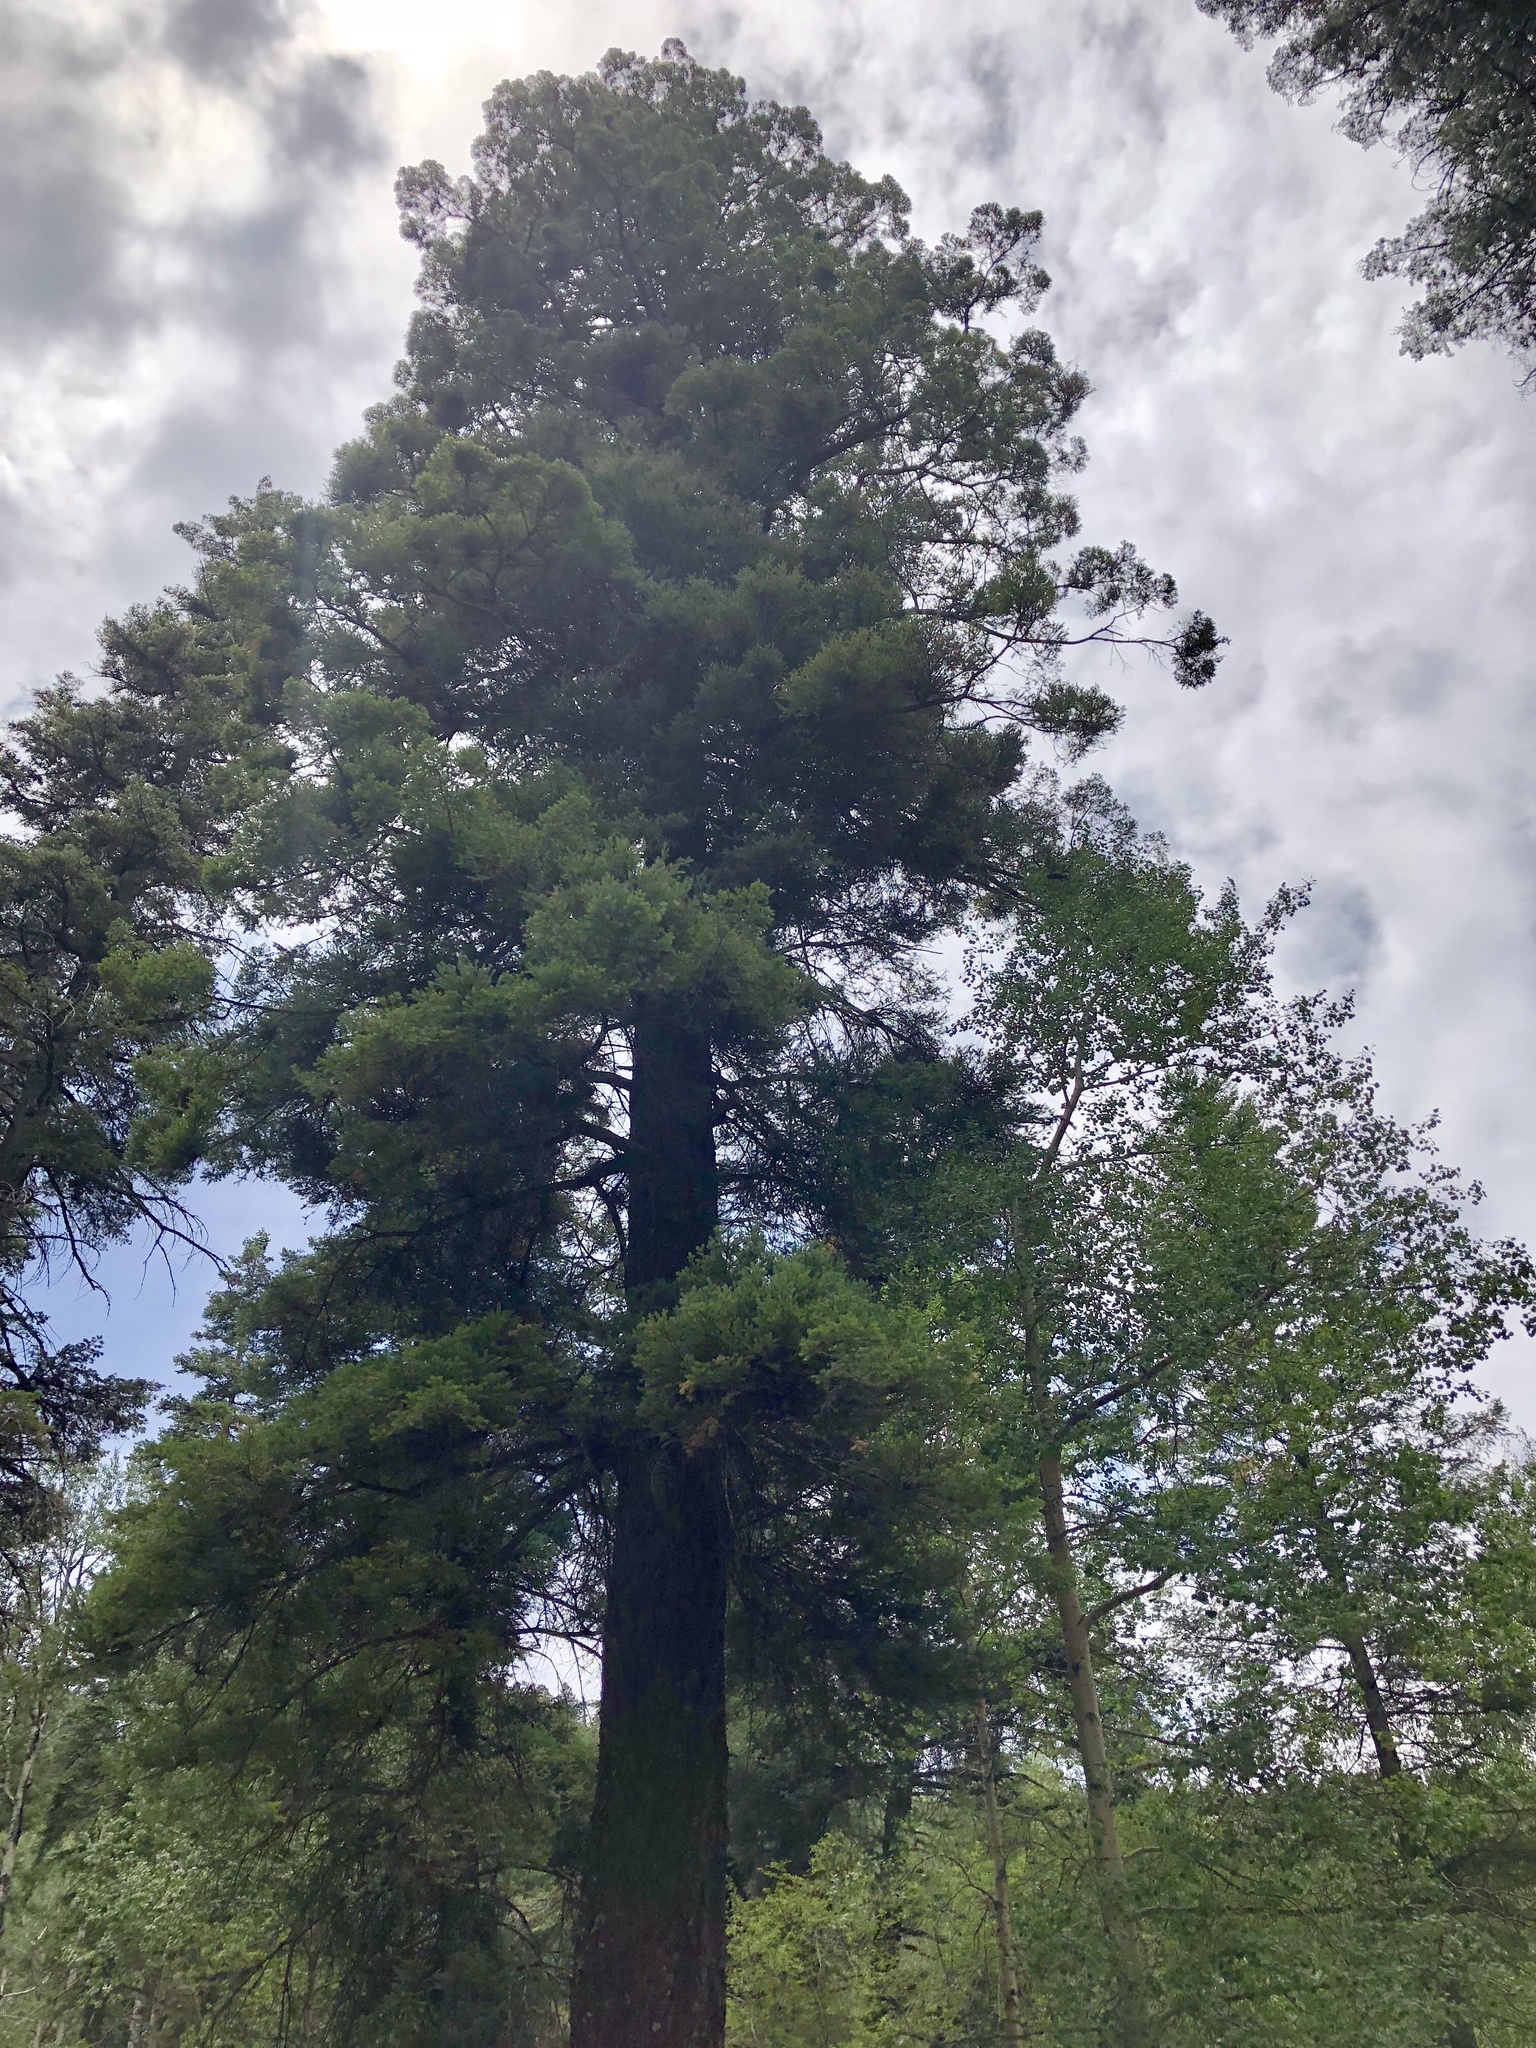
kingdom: Plantae
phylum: Tracheophyta
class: Pinopsida
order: Pinales
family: Pinaceae
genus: Pseudotsuga
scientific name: Pseudotsuga menziesii
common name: Douglas fir
